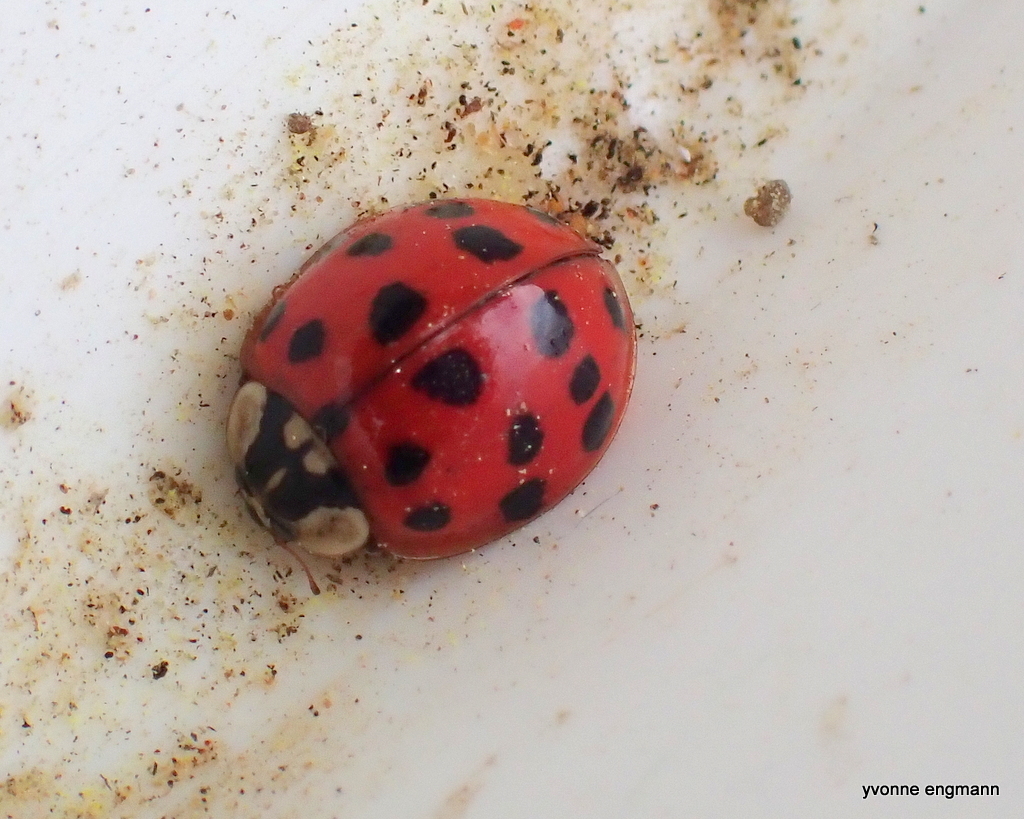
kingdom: Animalia
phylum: Arthropoda
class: Insecta
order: Coleoptera
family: Coccinellidae
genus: Harmonia
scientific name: Harmonia axyridis
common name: Harlequin ladybird
